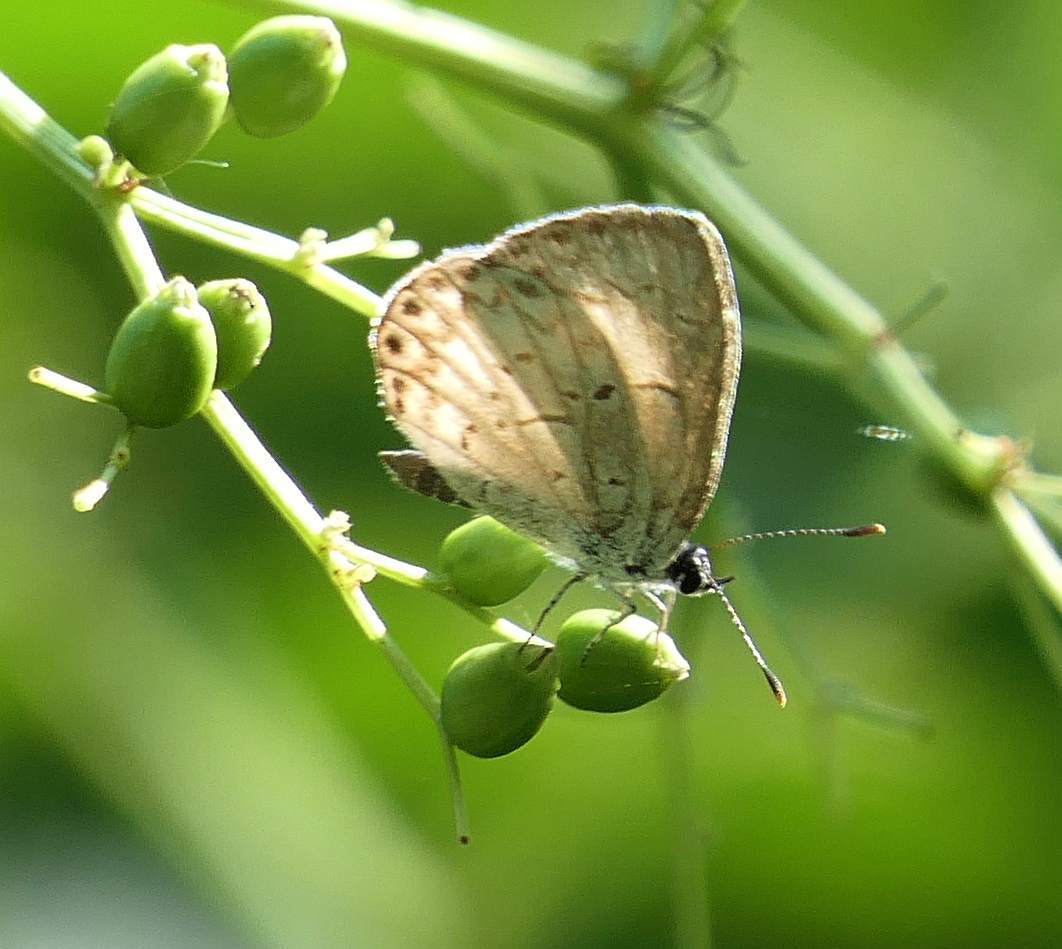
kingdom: Animalia
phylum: Arthropoda
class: Insecta
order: Lepidoptera
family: Lycaenidae
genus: Celastrina
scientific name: Celastrina lucia
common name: Lucia azure
